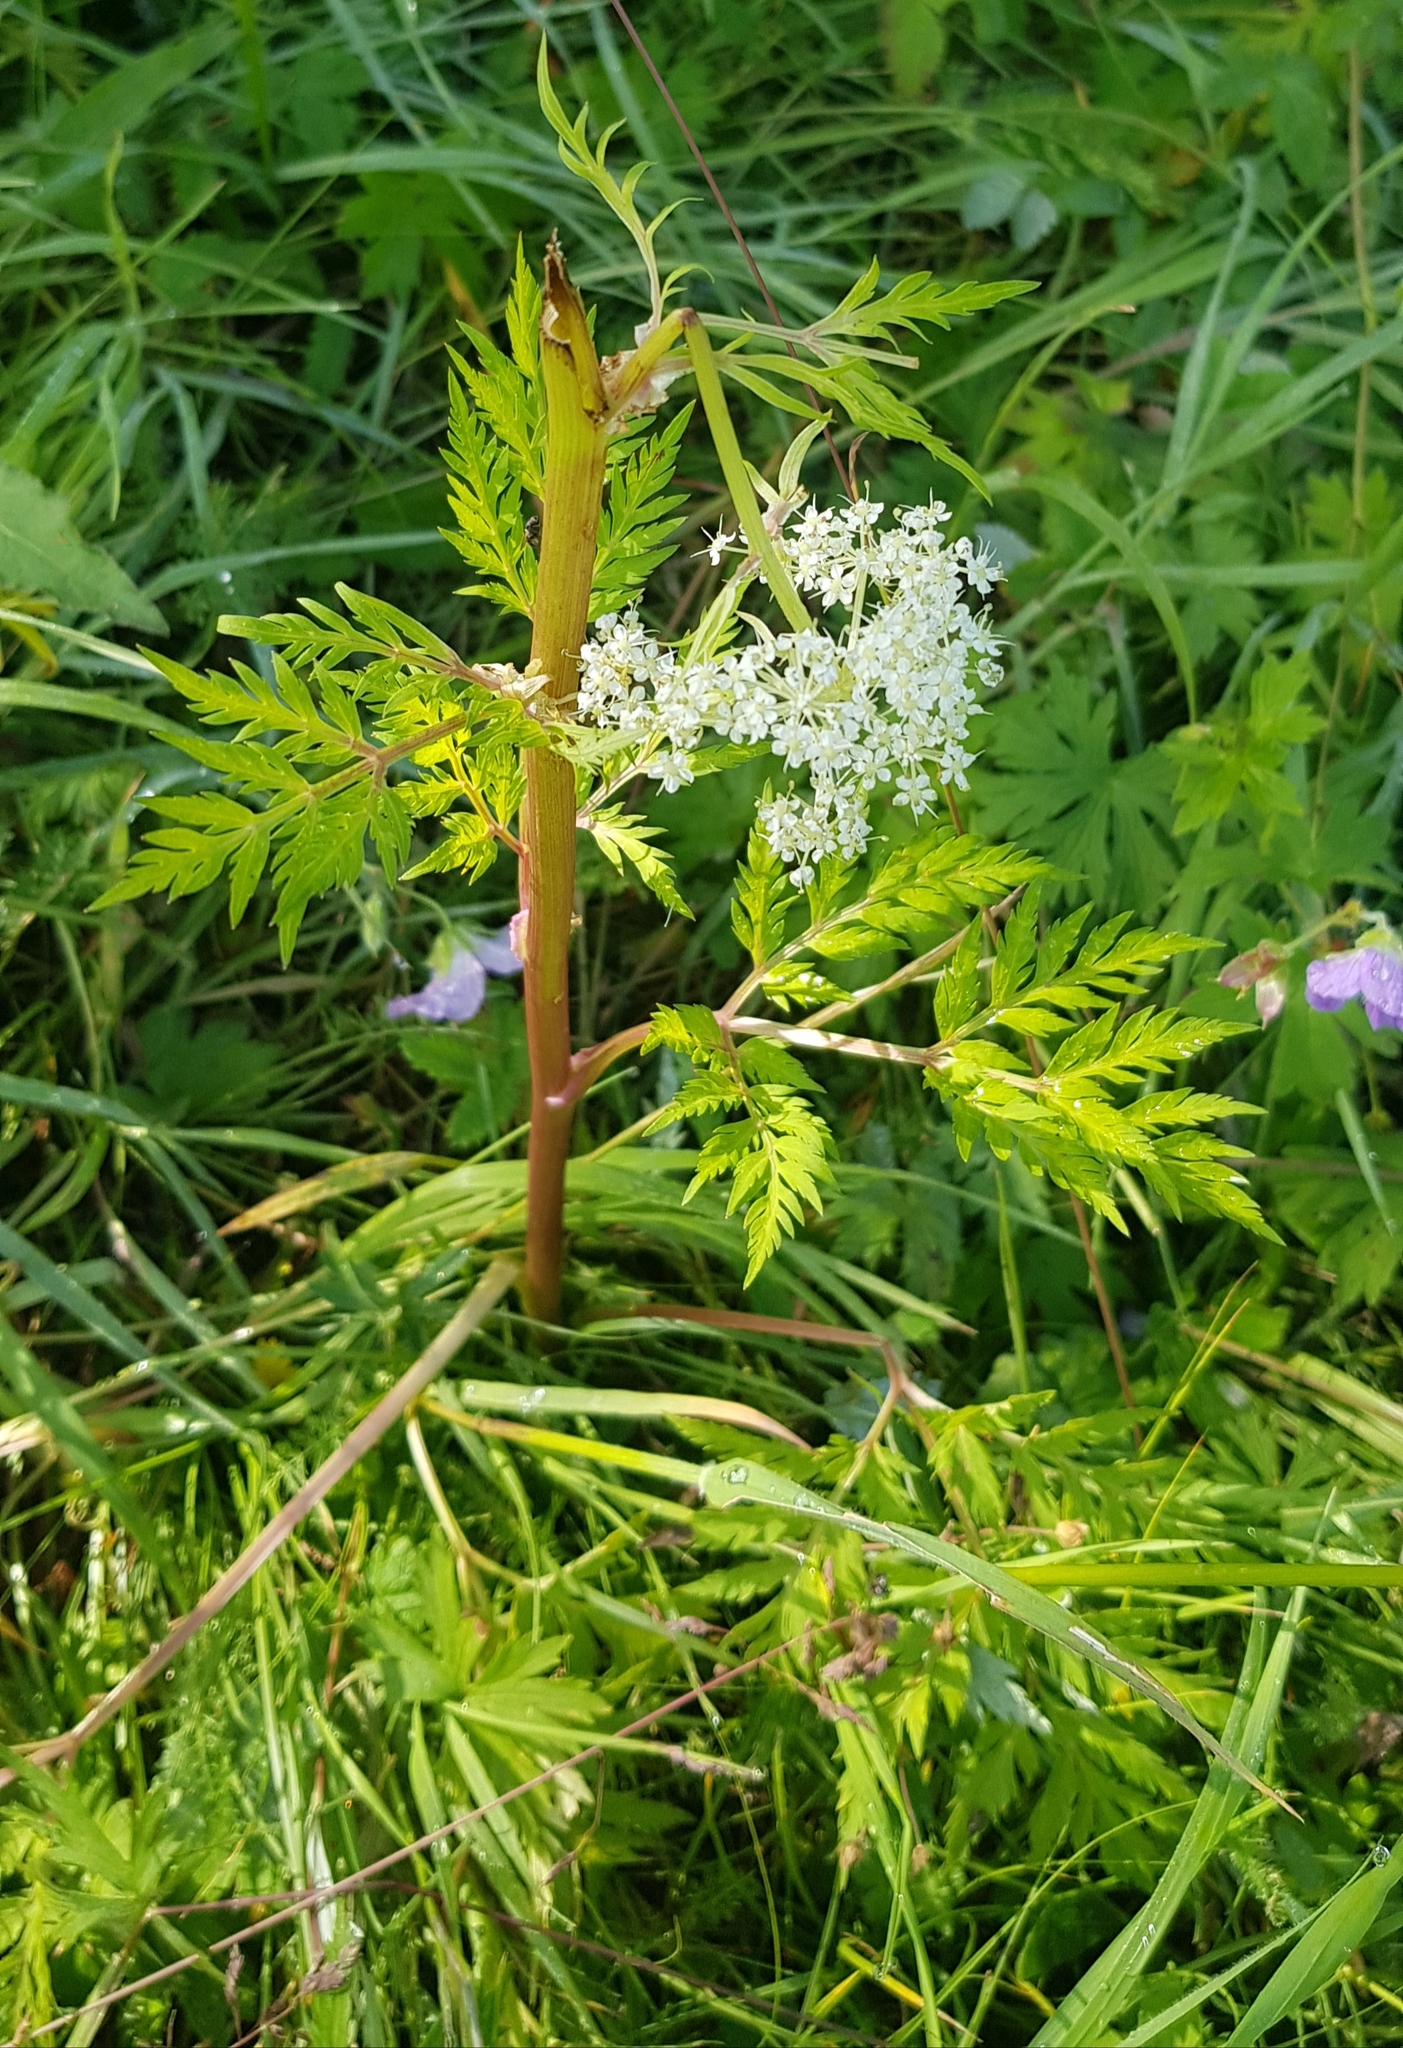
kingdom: Plantae
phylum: Tracheophyta
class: Magnoliopsida
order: Apiales
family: Apiaceae
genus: Pleurospermum
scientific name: Pleurospermum uralense
